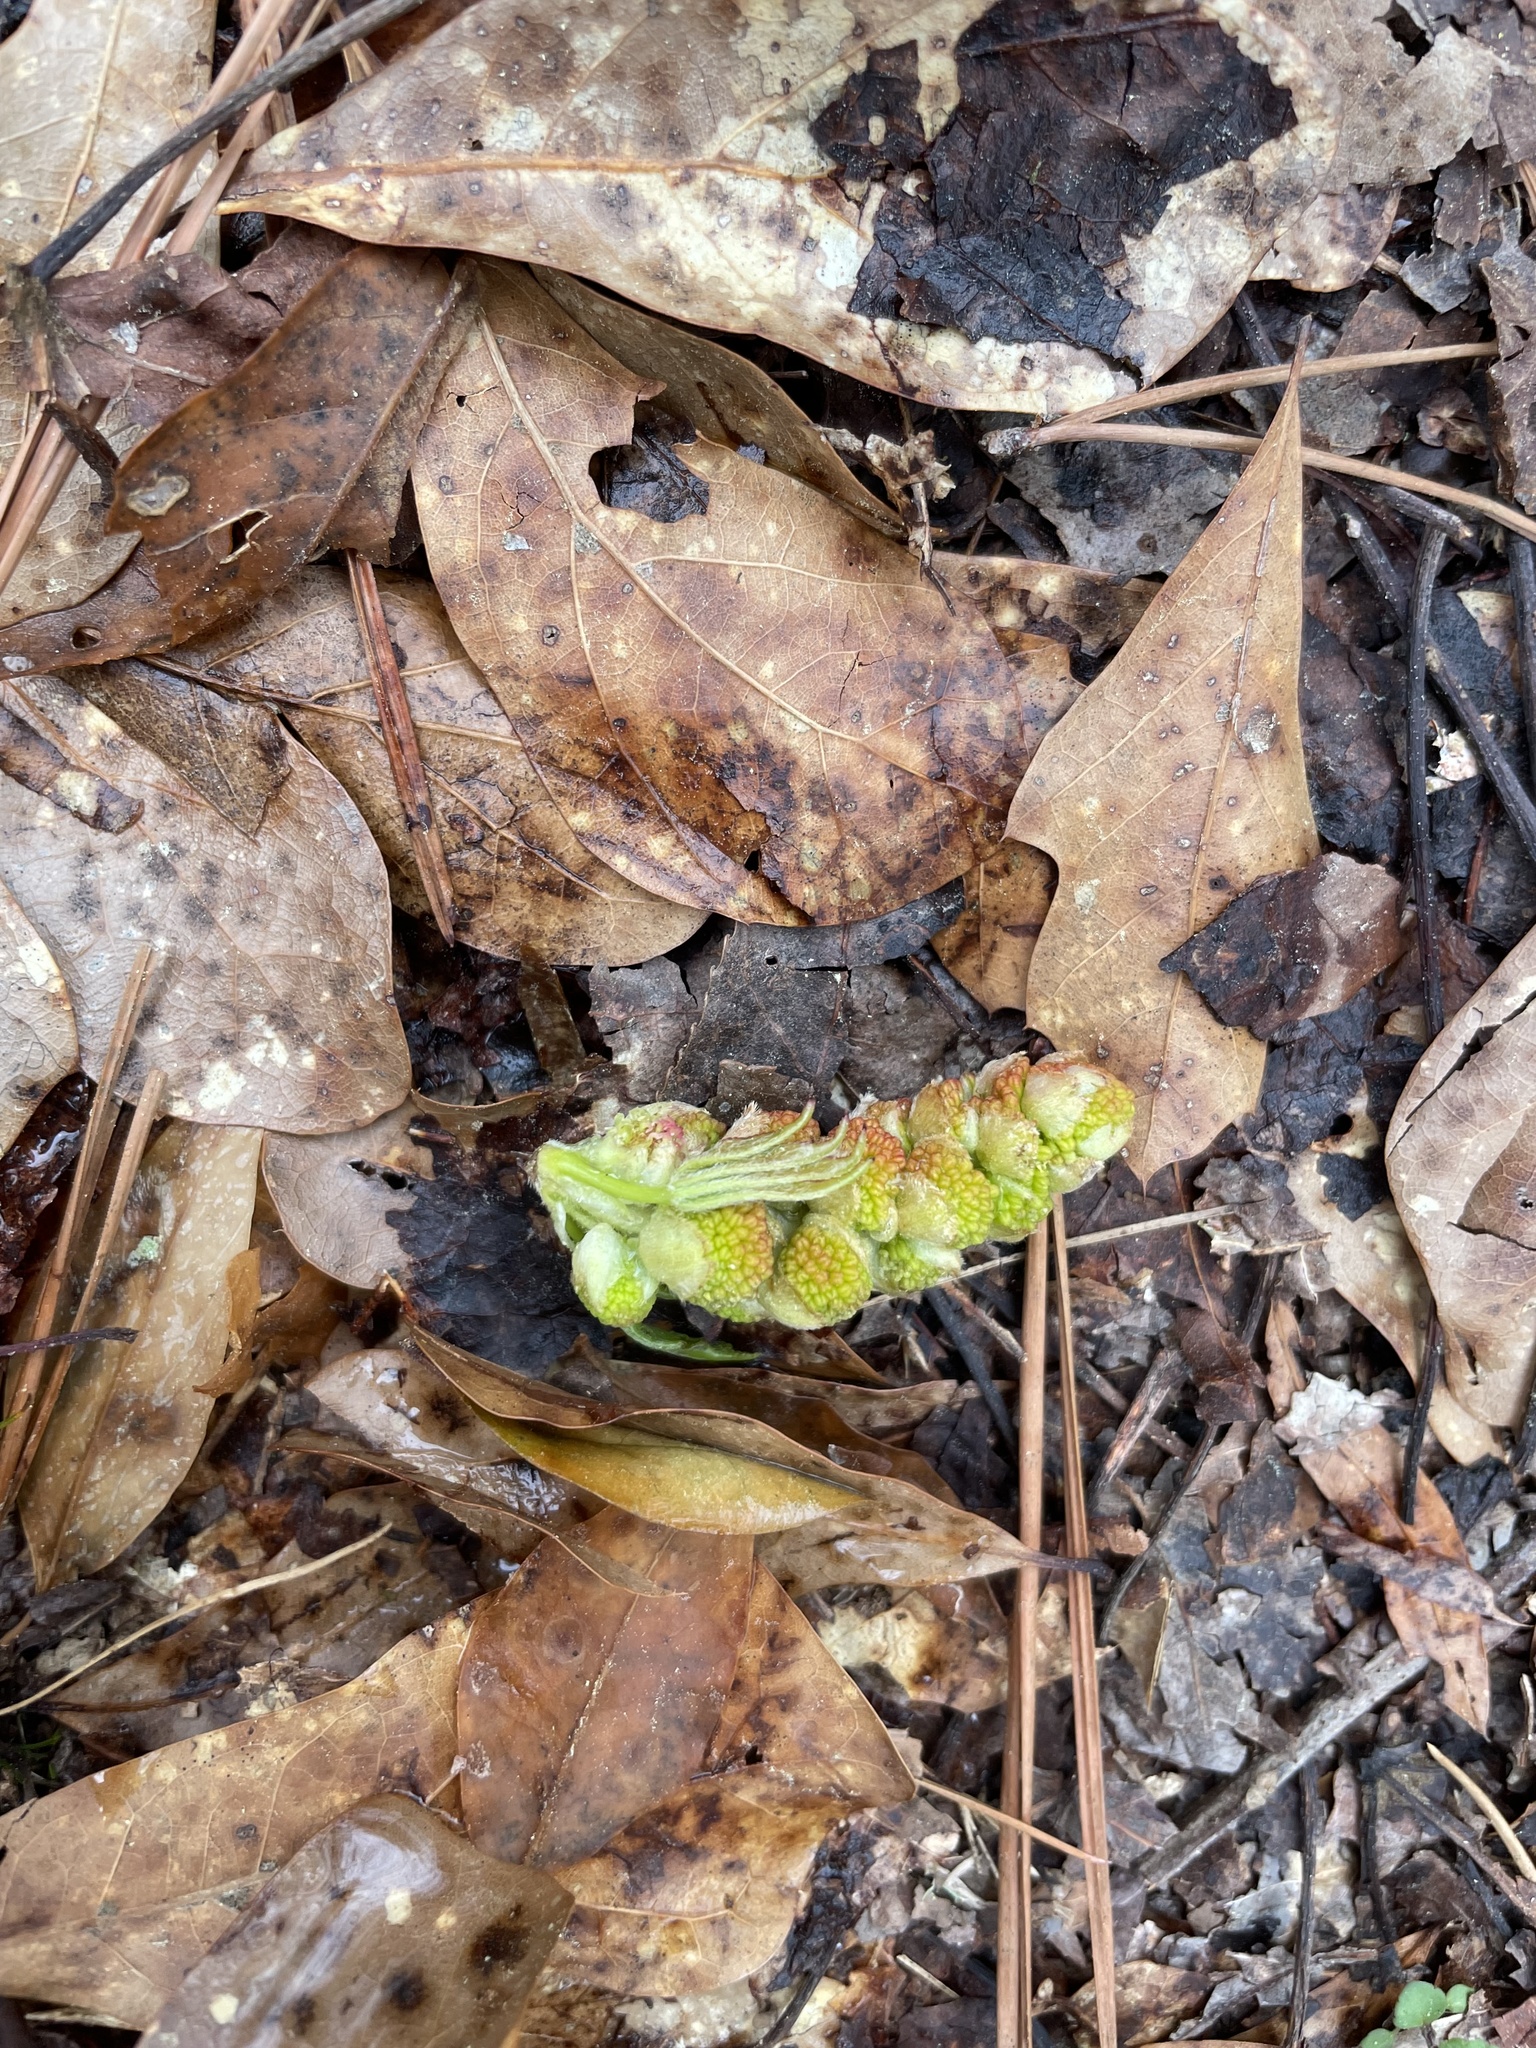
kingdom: Plantae
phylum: Tracheophyta
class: Magnoliopsida
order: Saxifragales
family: Altingiaceae
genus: Liquidambar
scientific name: Liquidambar styraciflua
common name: Sweet gum
